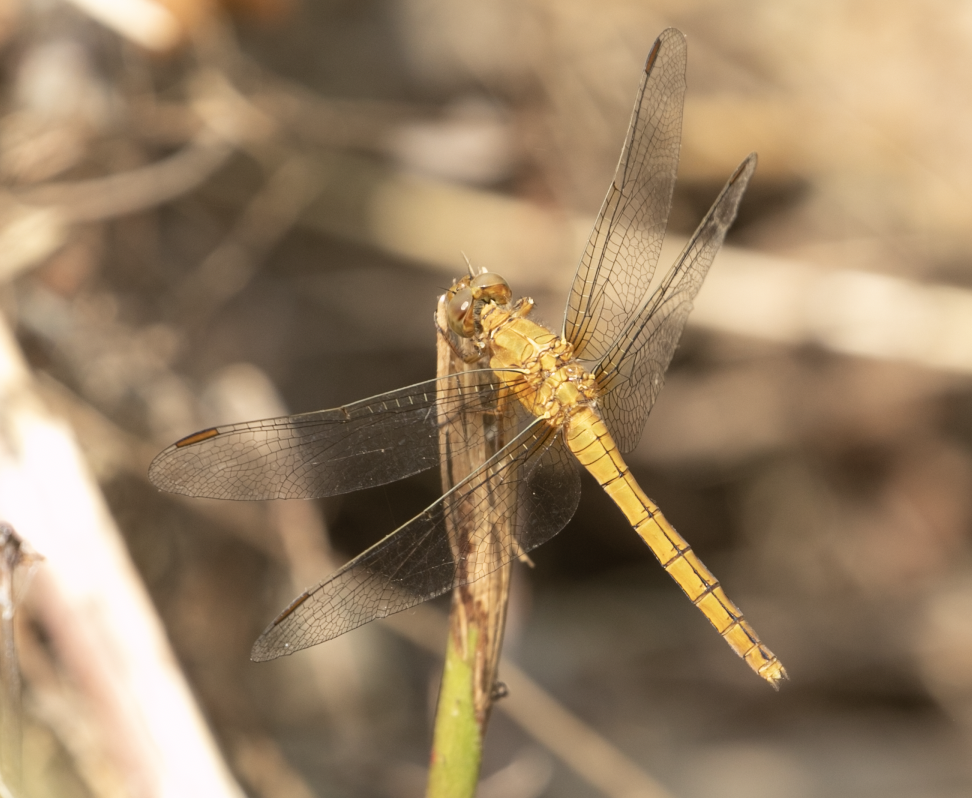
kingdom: Animalia
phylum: Arthropoda
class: Insecta
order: Odonata
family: Libellulidae
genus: Orthetrum
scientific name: Orthetrum coerulescens
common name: Keeled skimmer
